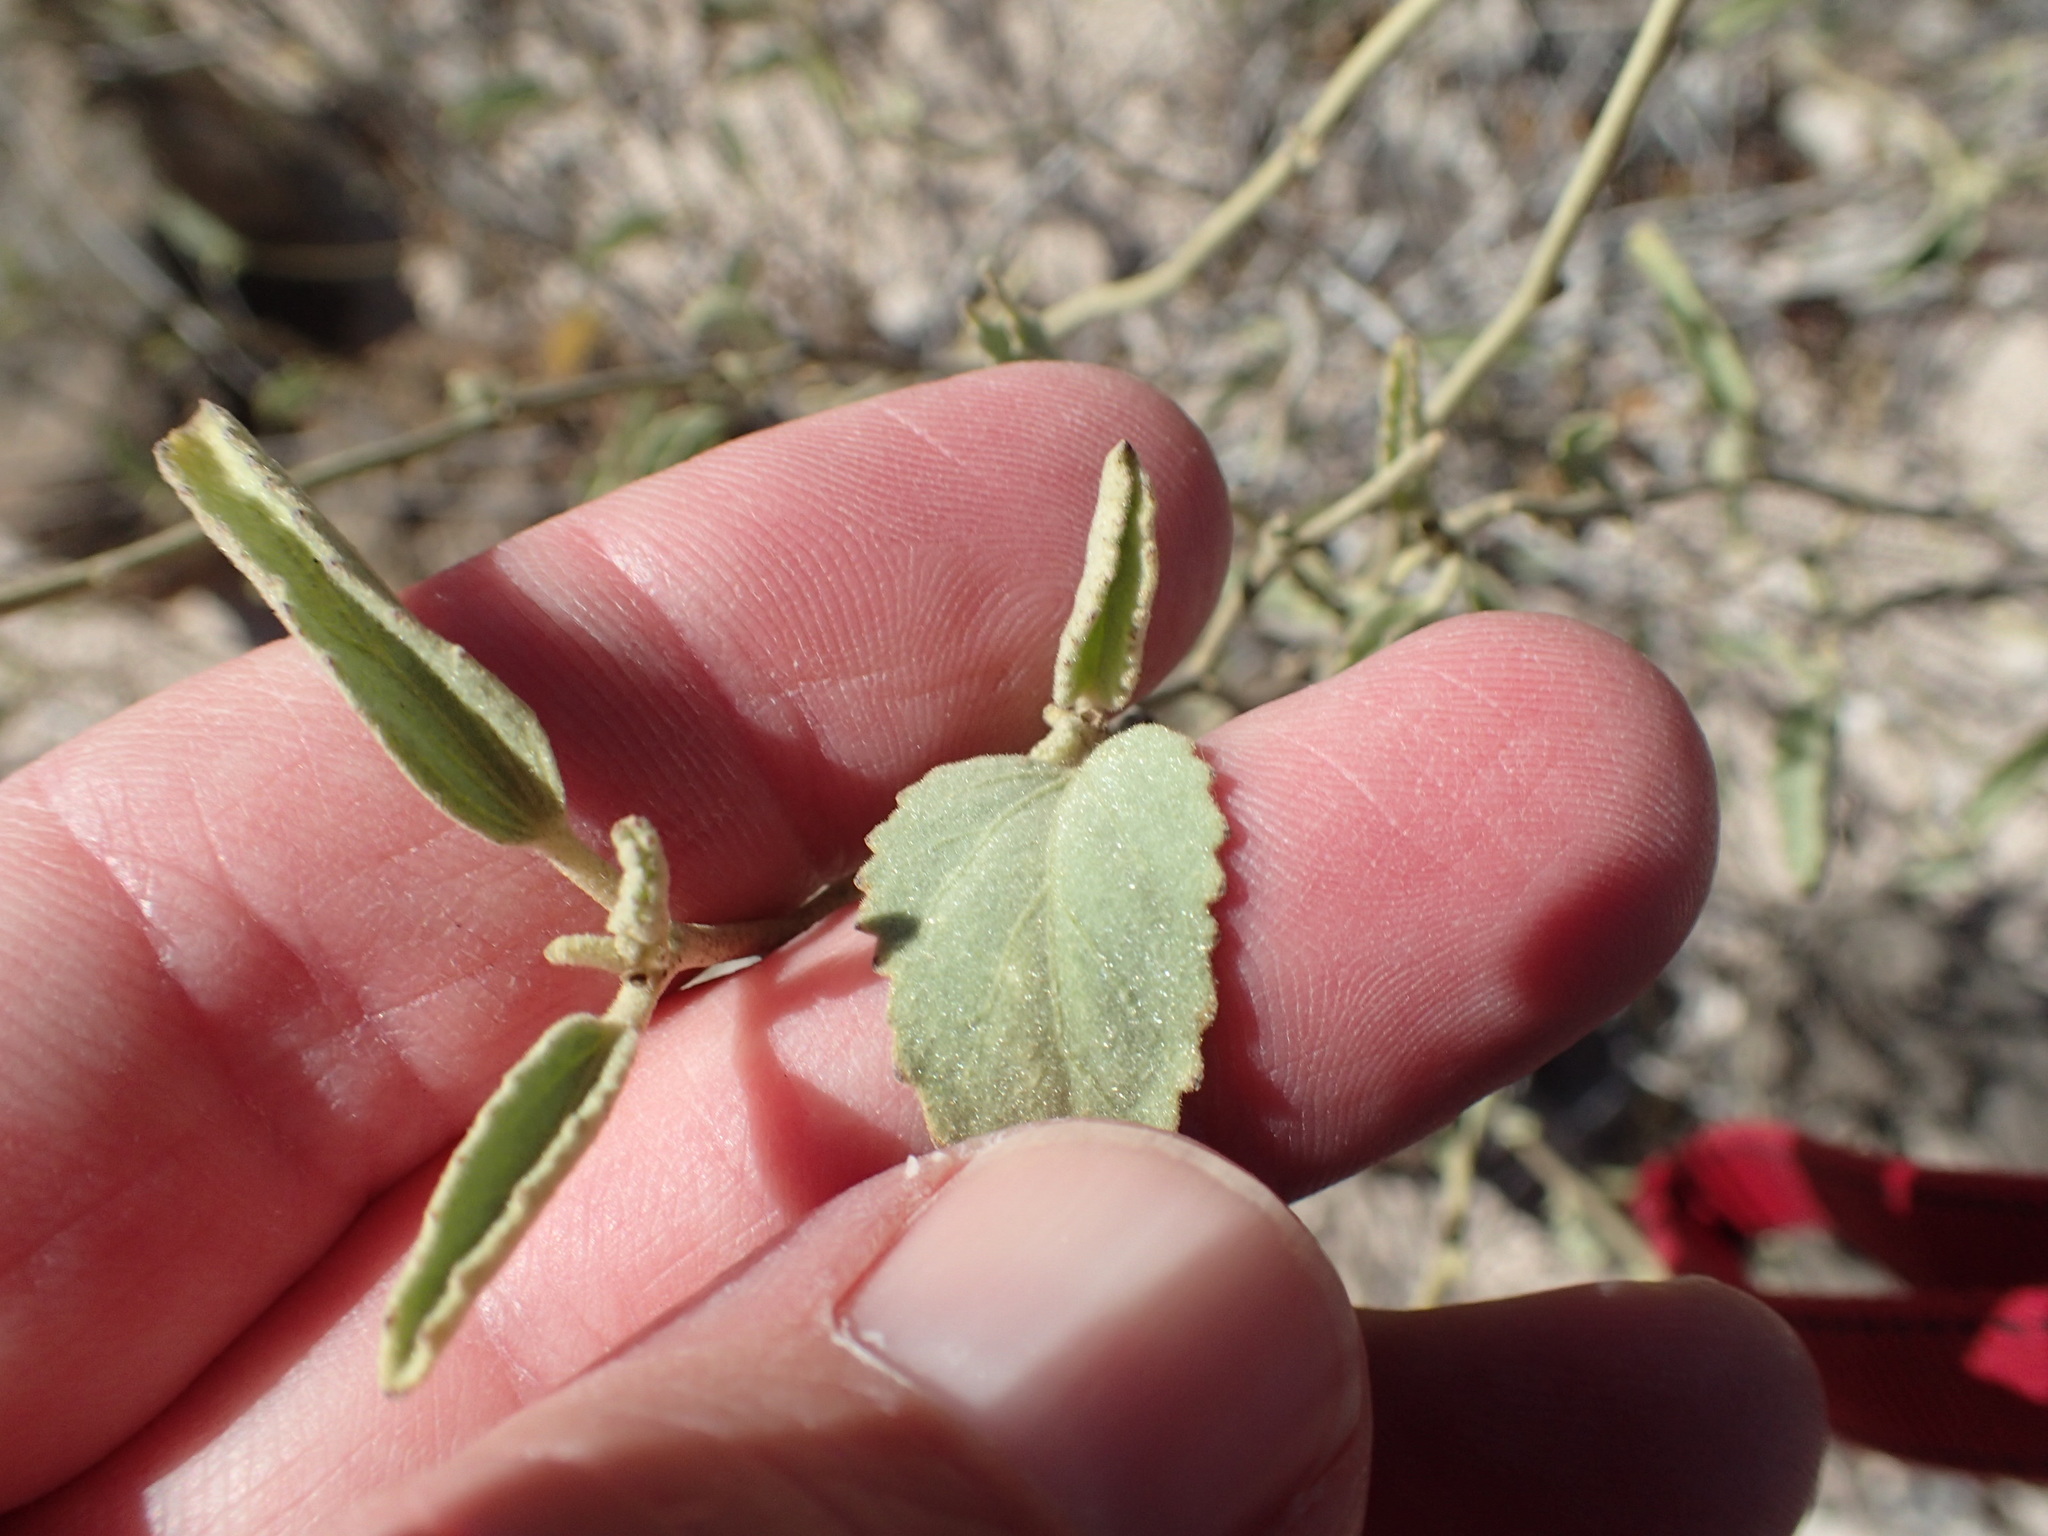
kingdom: Plantae
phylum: Tracheophyta
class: Magnoliopsida
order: Malvales
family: Malvaceae
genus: Hibiscus
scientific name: Hibiscus denudatus
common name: Paleface
